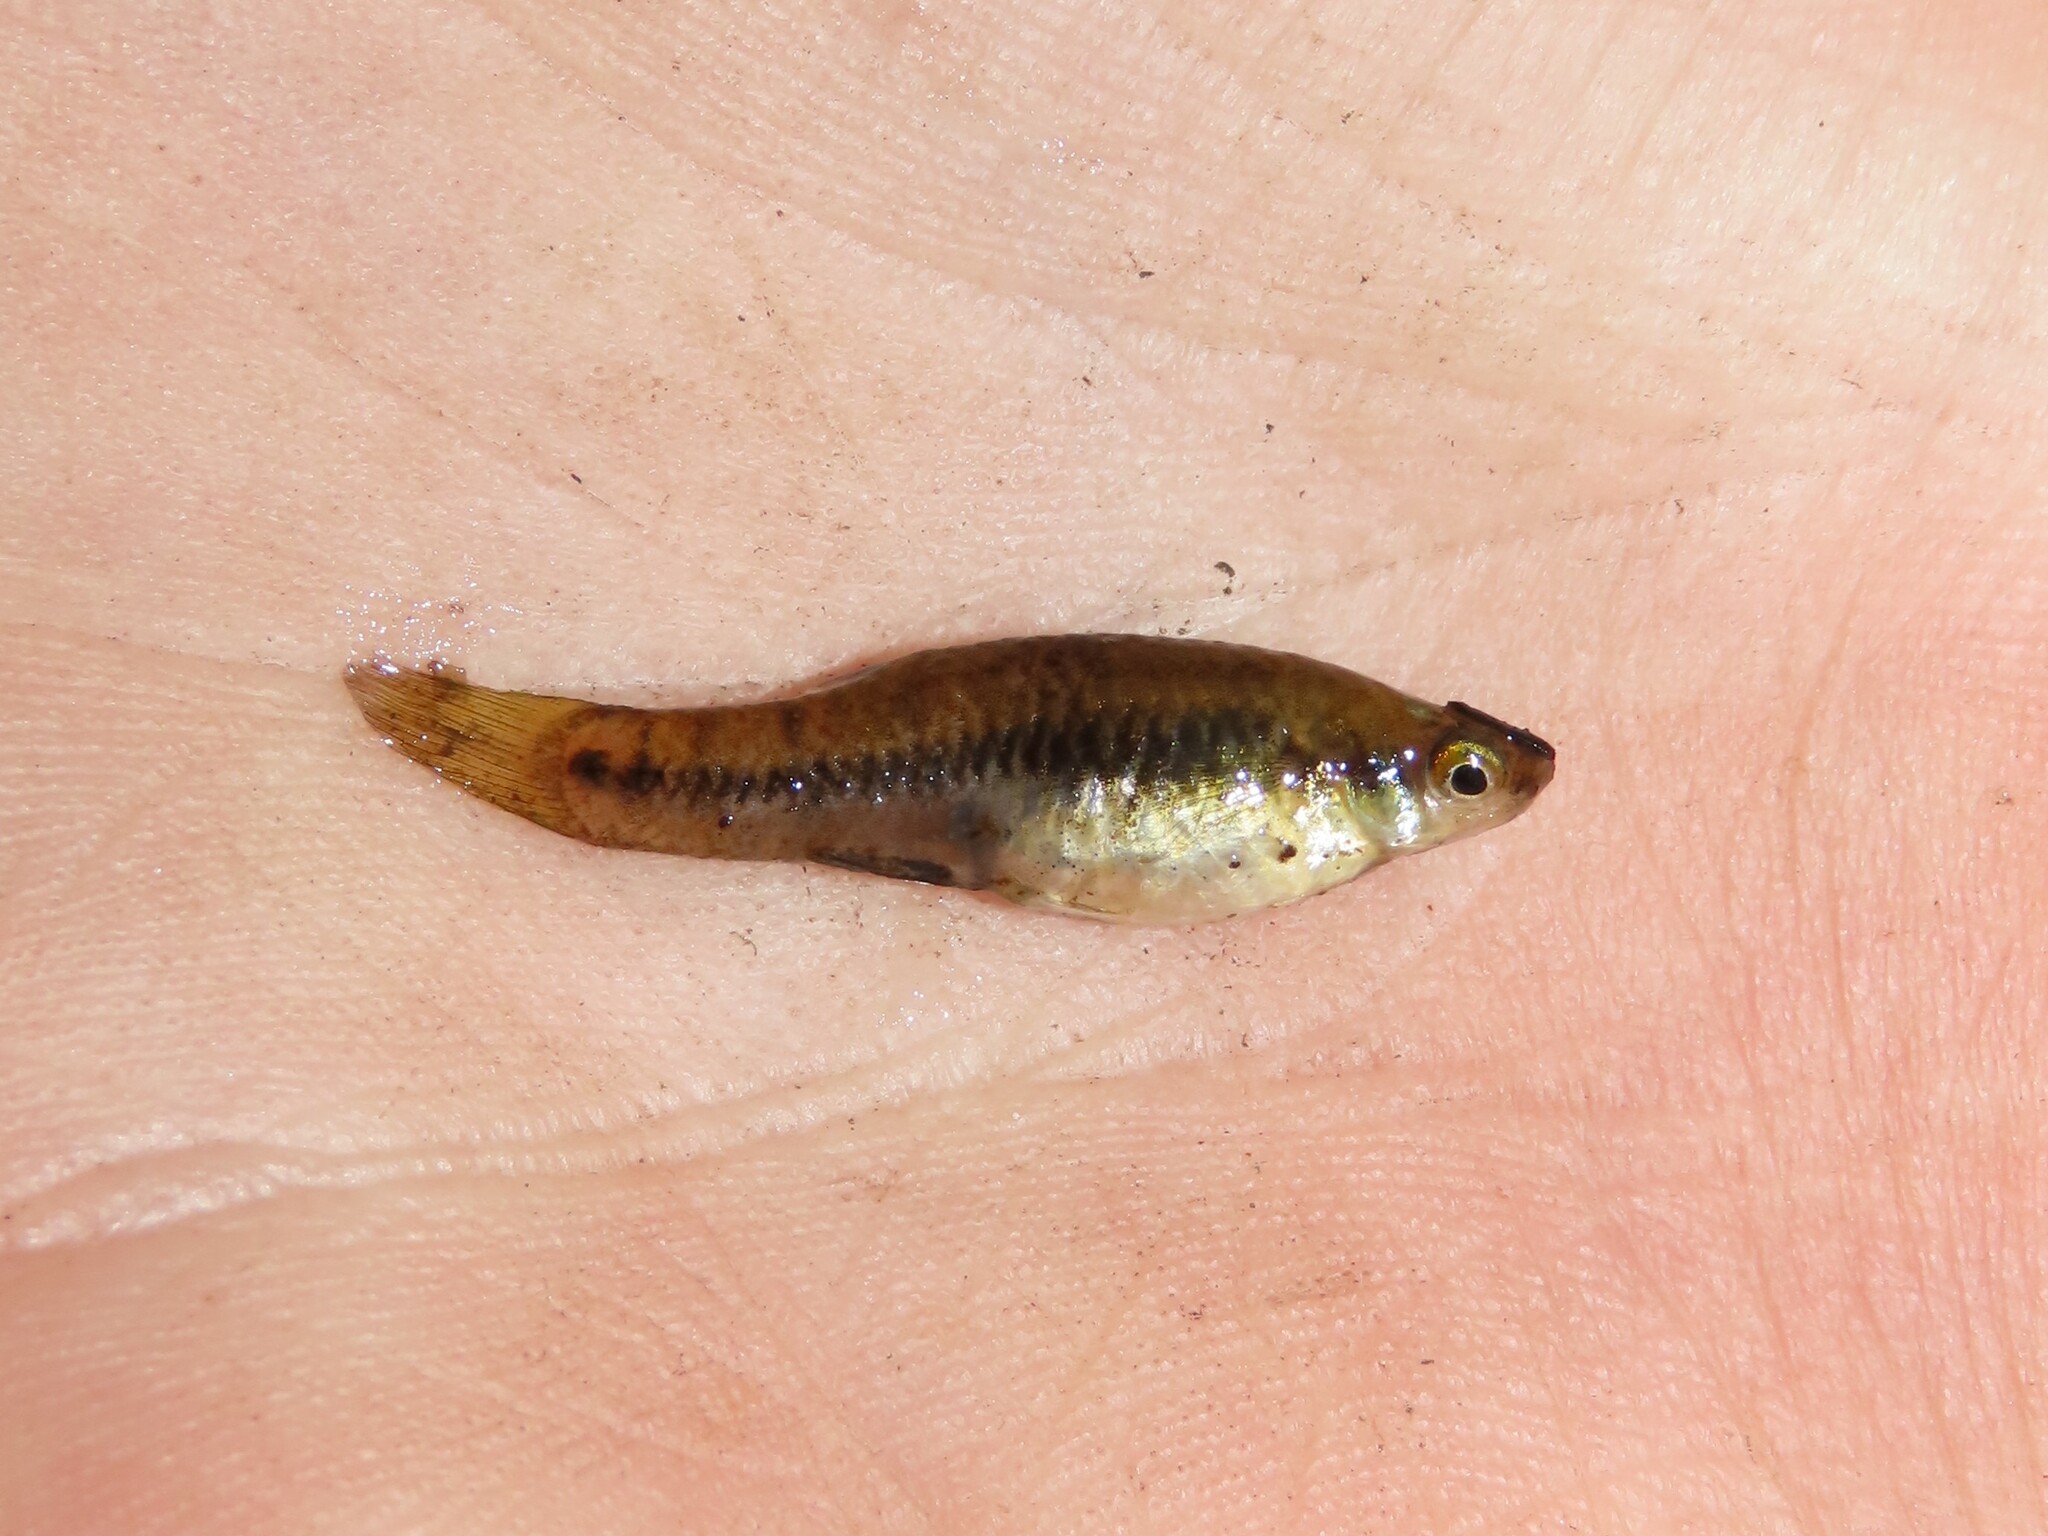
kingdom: Animalia
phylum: Chordata
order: Cyprinodontiformes
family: Poeciliidae
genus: Heterandria
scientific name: Heterandria formosa
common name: Least killifish
